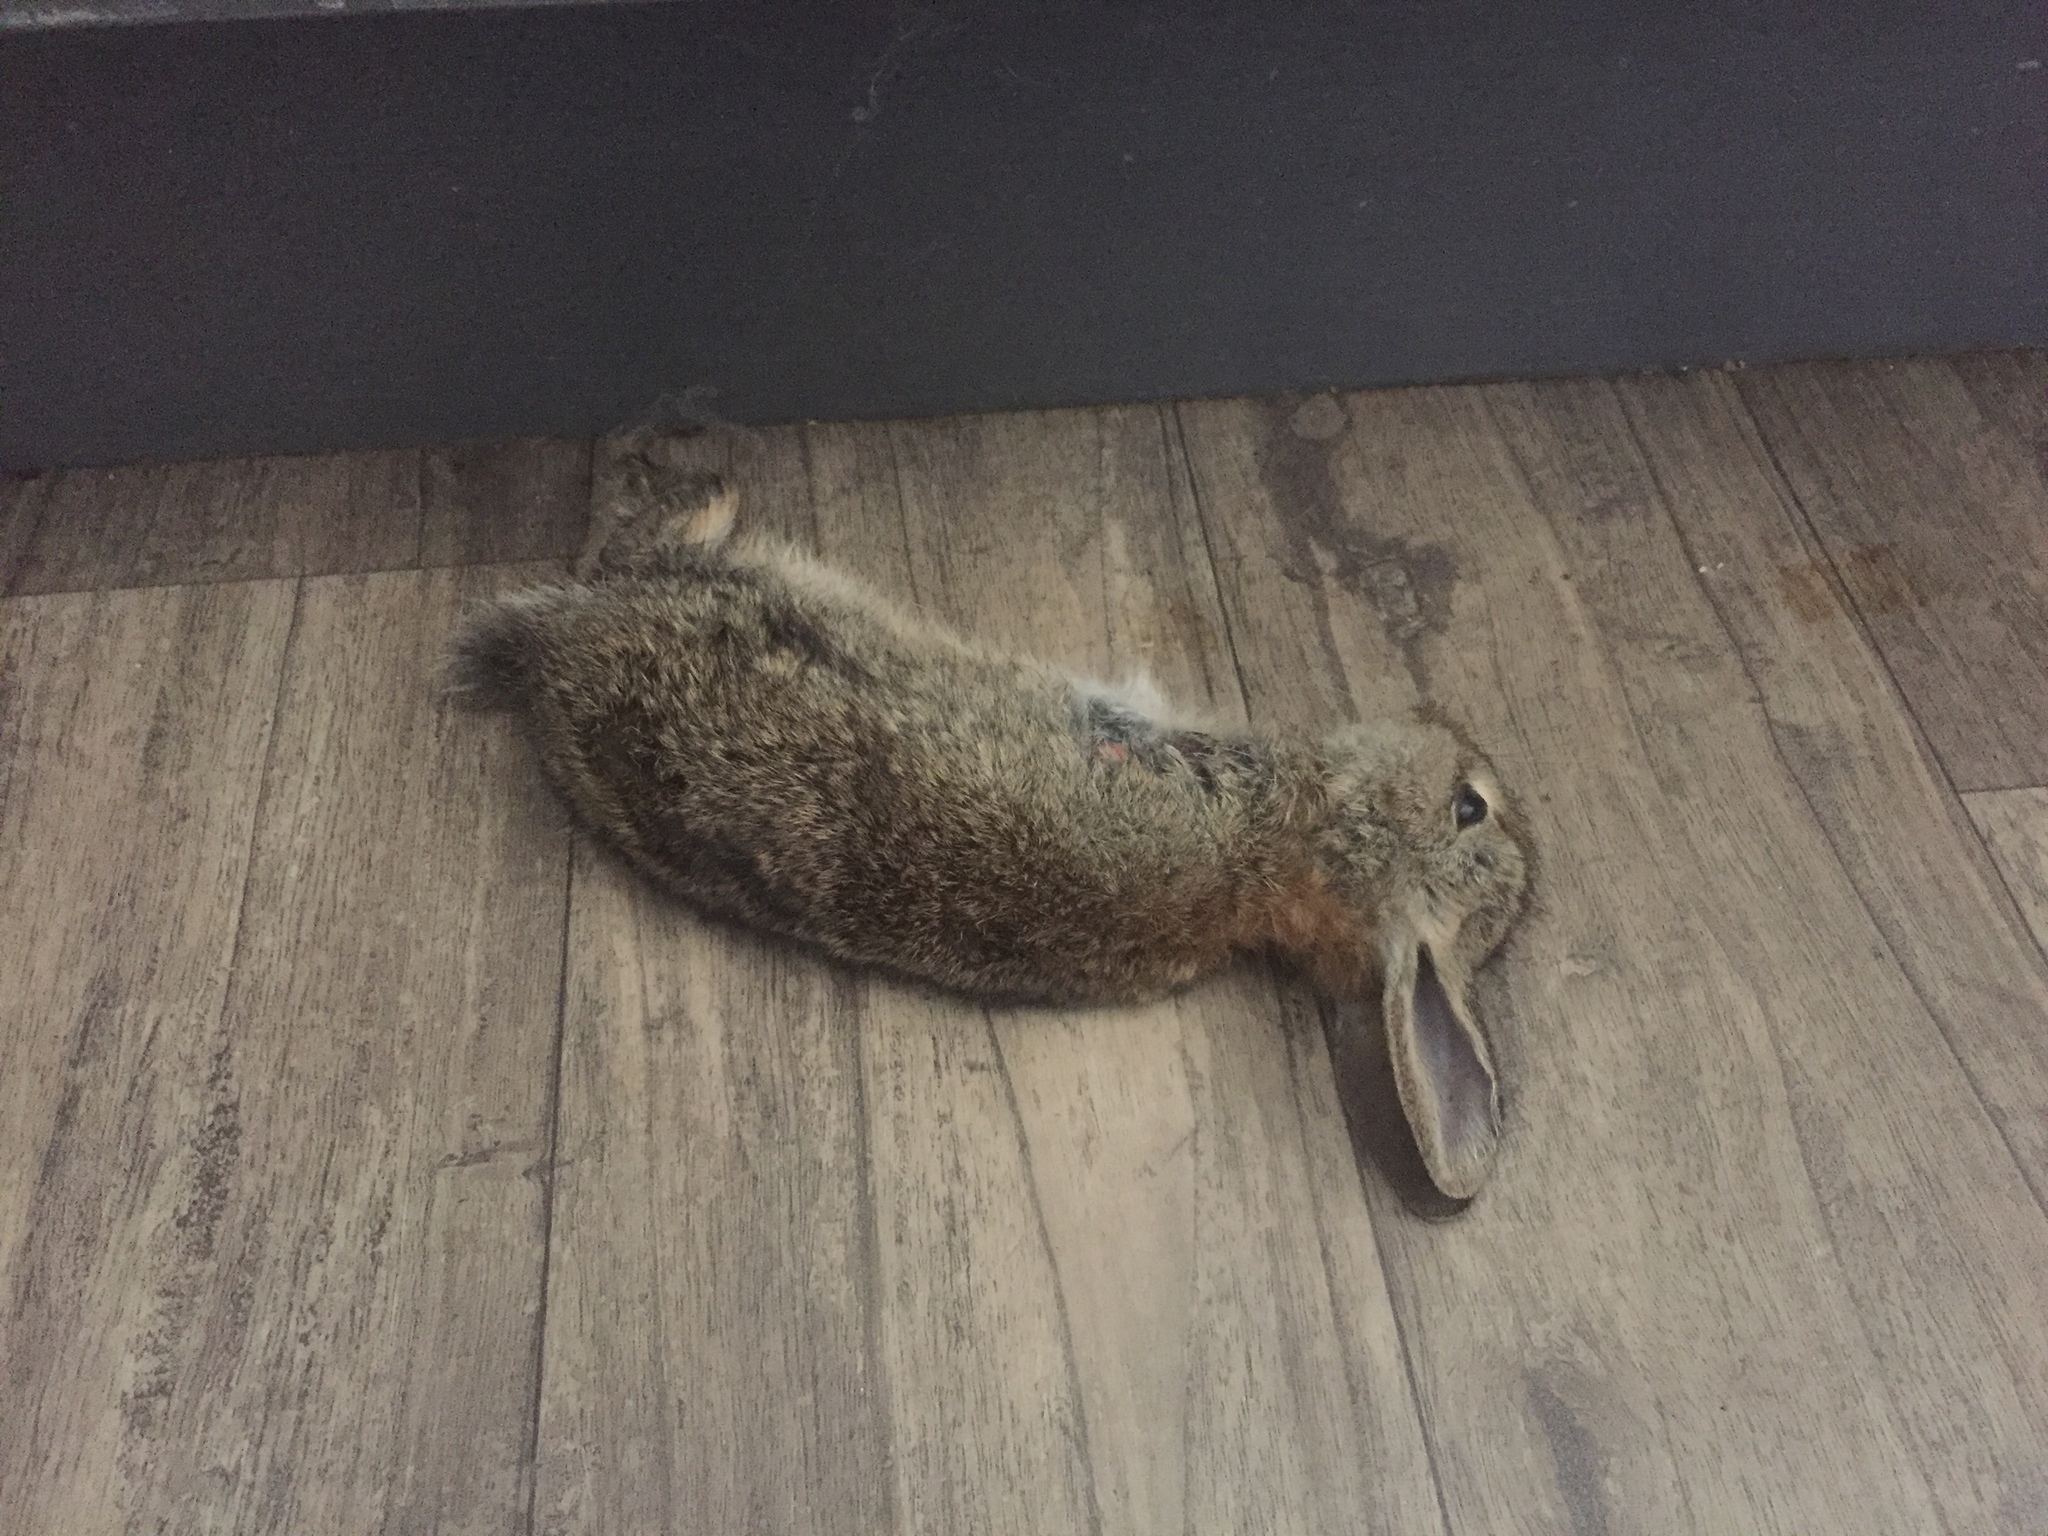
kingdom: Animalia
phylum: Chordata
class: Mammalia
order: Lagomorpha
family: Leporidae
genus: Oryctolagus
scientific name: Oryctolagus cuniculus
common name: European rabbit
